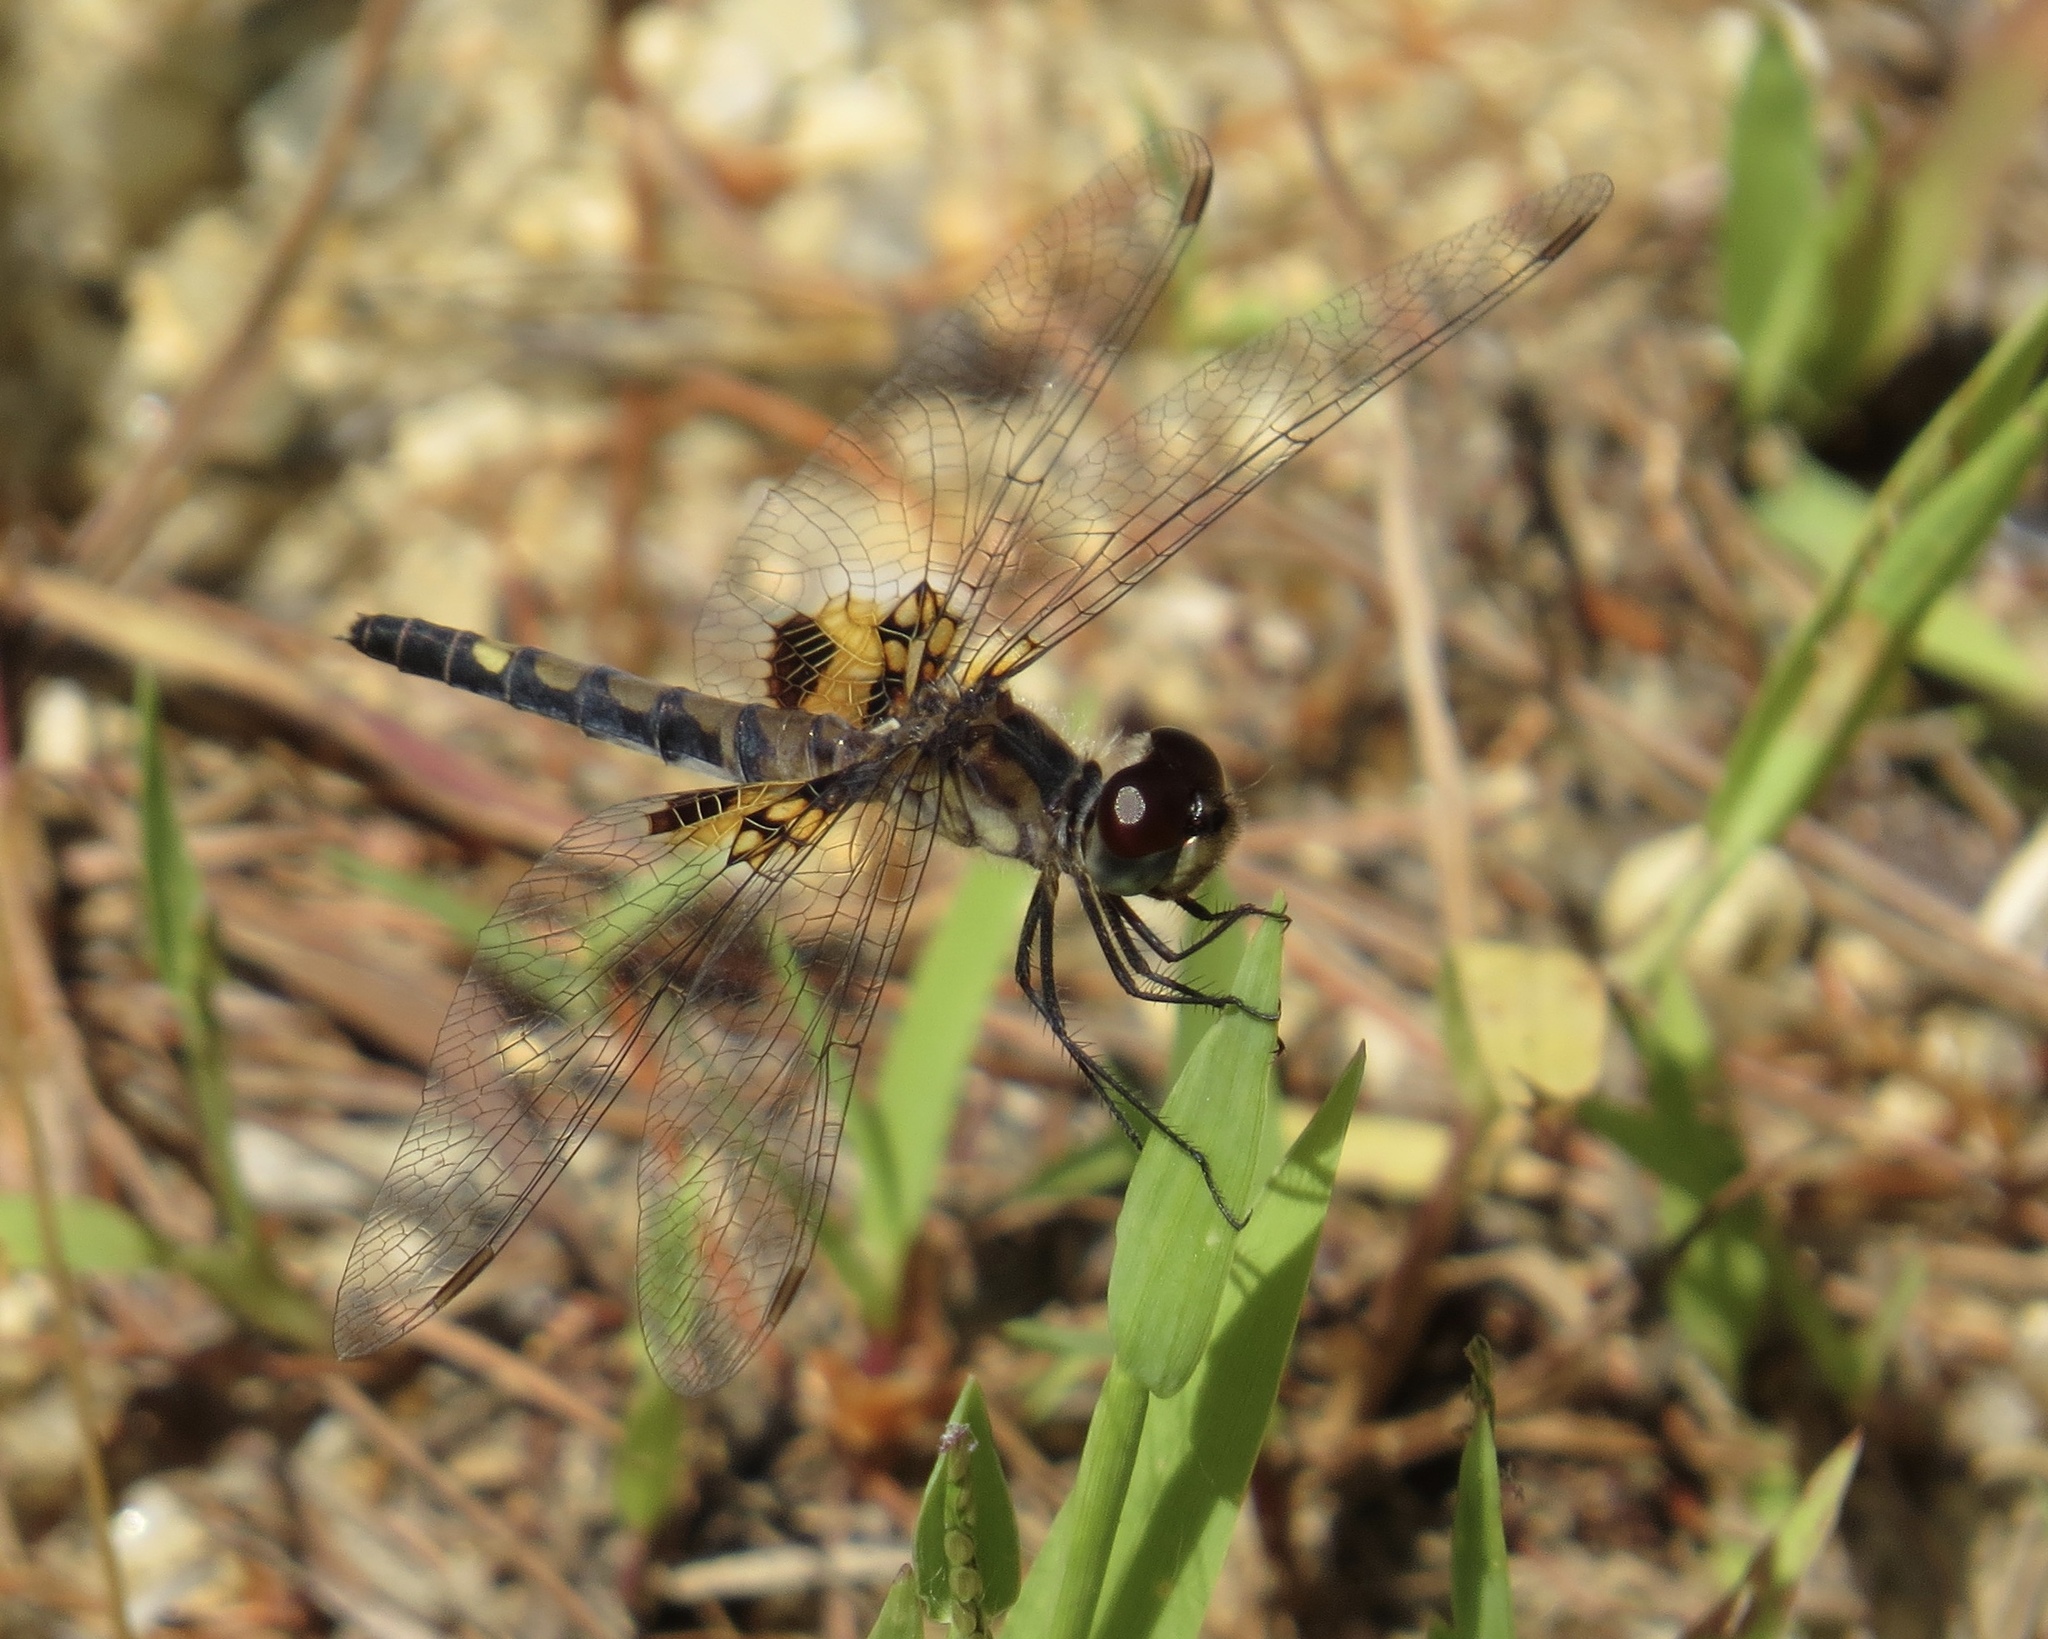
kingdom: Animalia
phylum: Arthropoda
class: Insecta
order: Odonata
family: Libellulidae
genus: Celithemis
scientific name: Celithemis martha
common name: Martha's pennant
